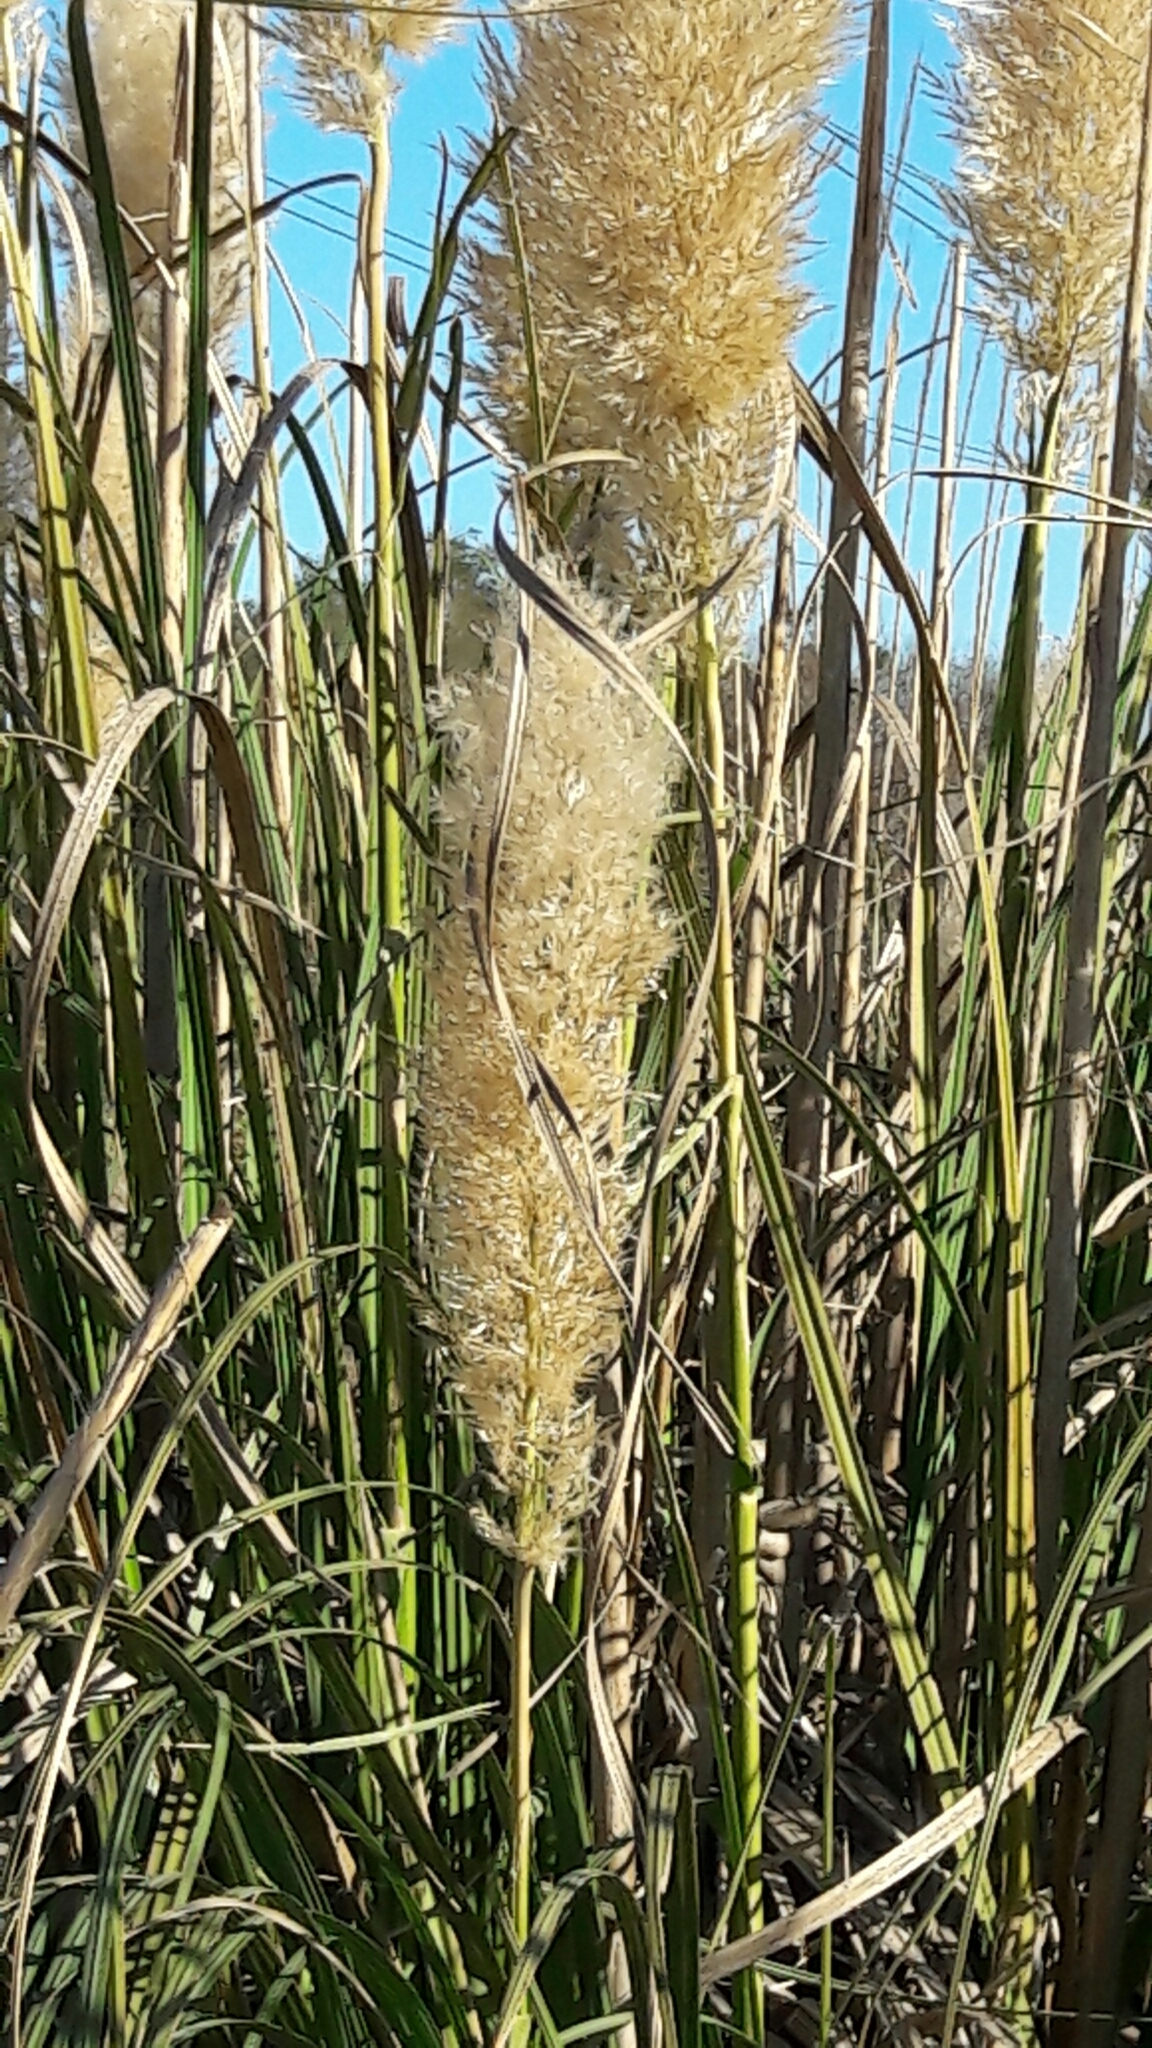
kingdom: Plantae
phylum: Tracheophyta
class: Liliopsida
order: Poales
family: Poaceae
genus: Cortaderia
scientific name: Cortaderia selloana
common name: Uruguayan pampas grass
